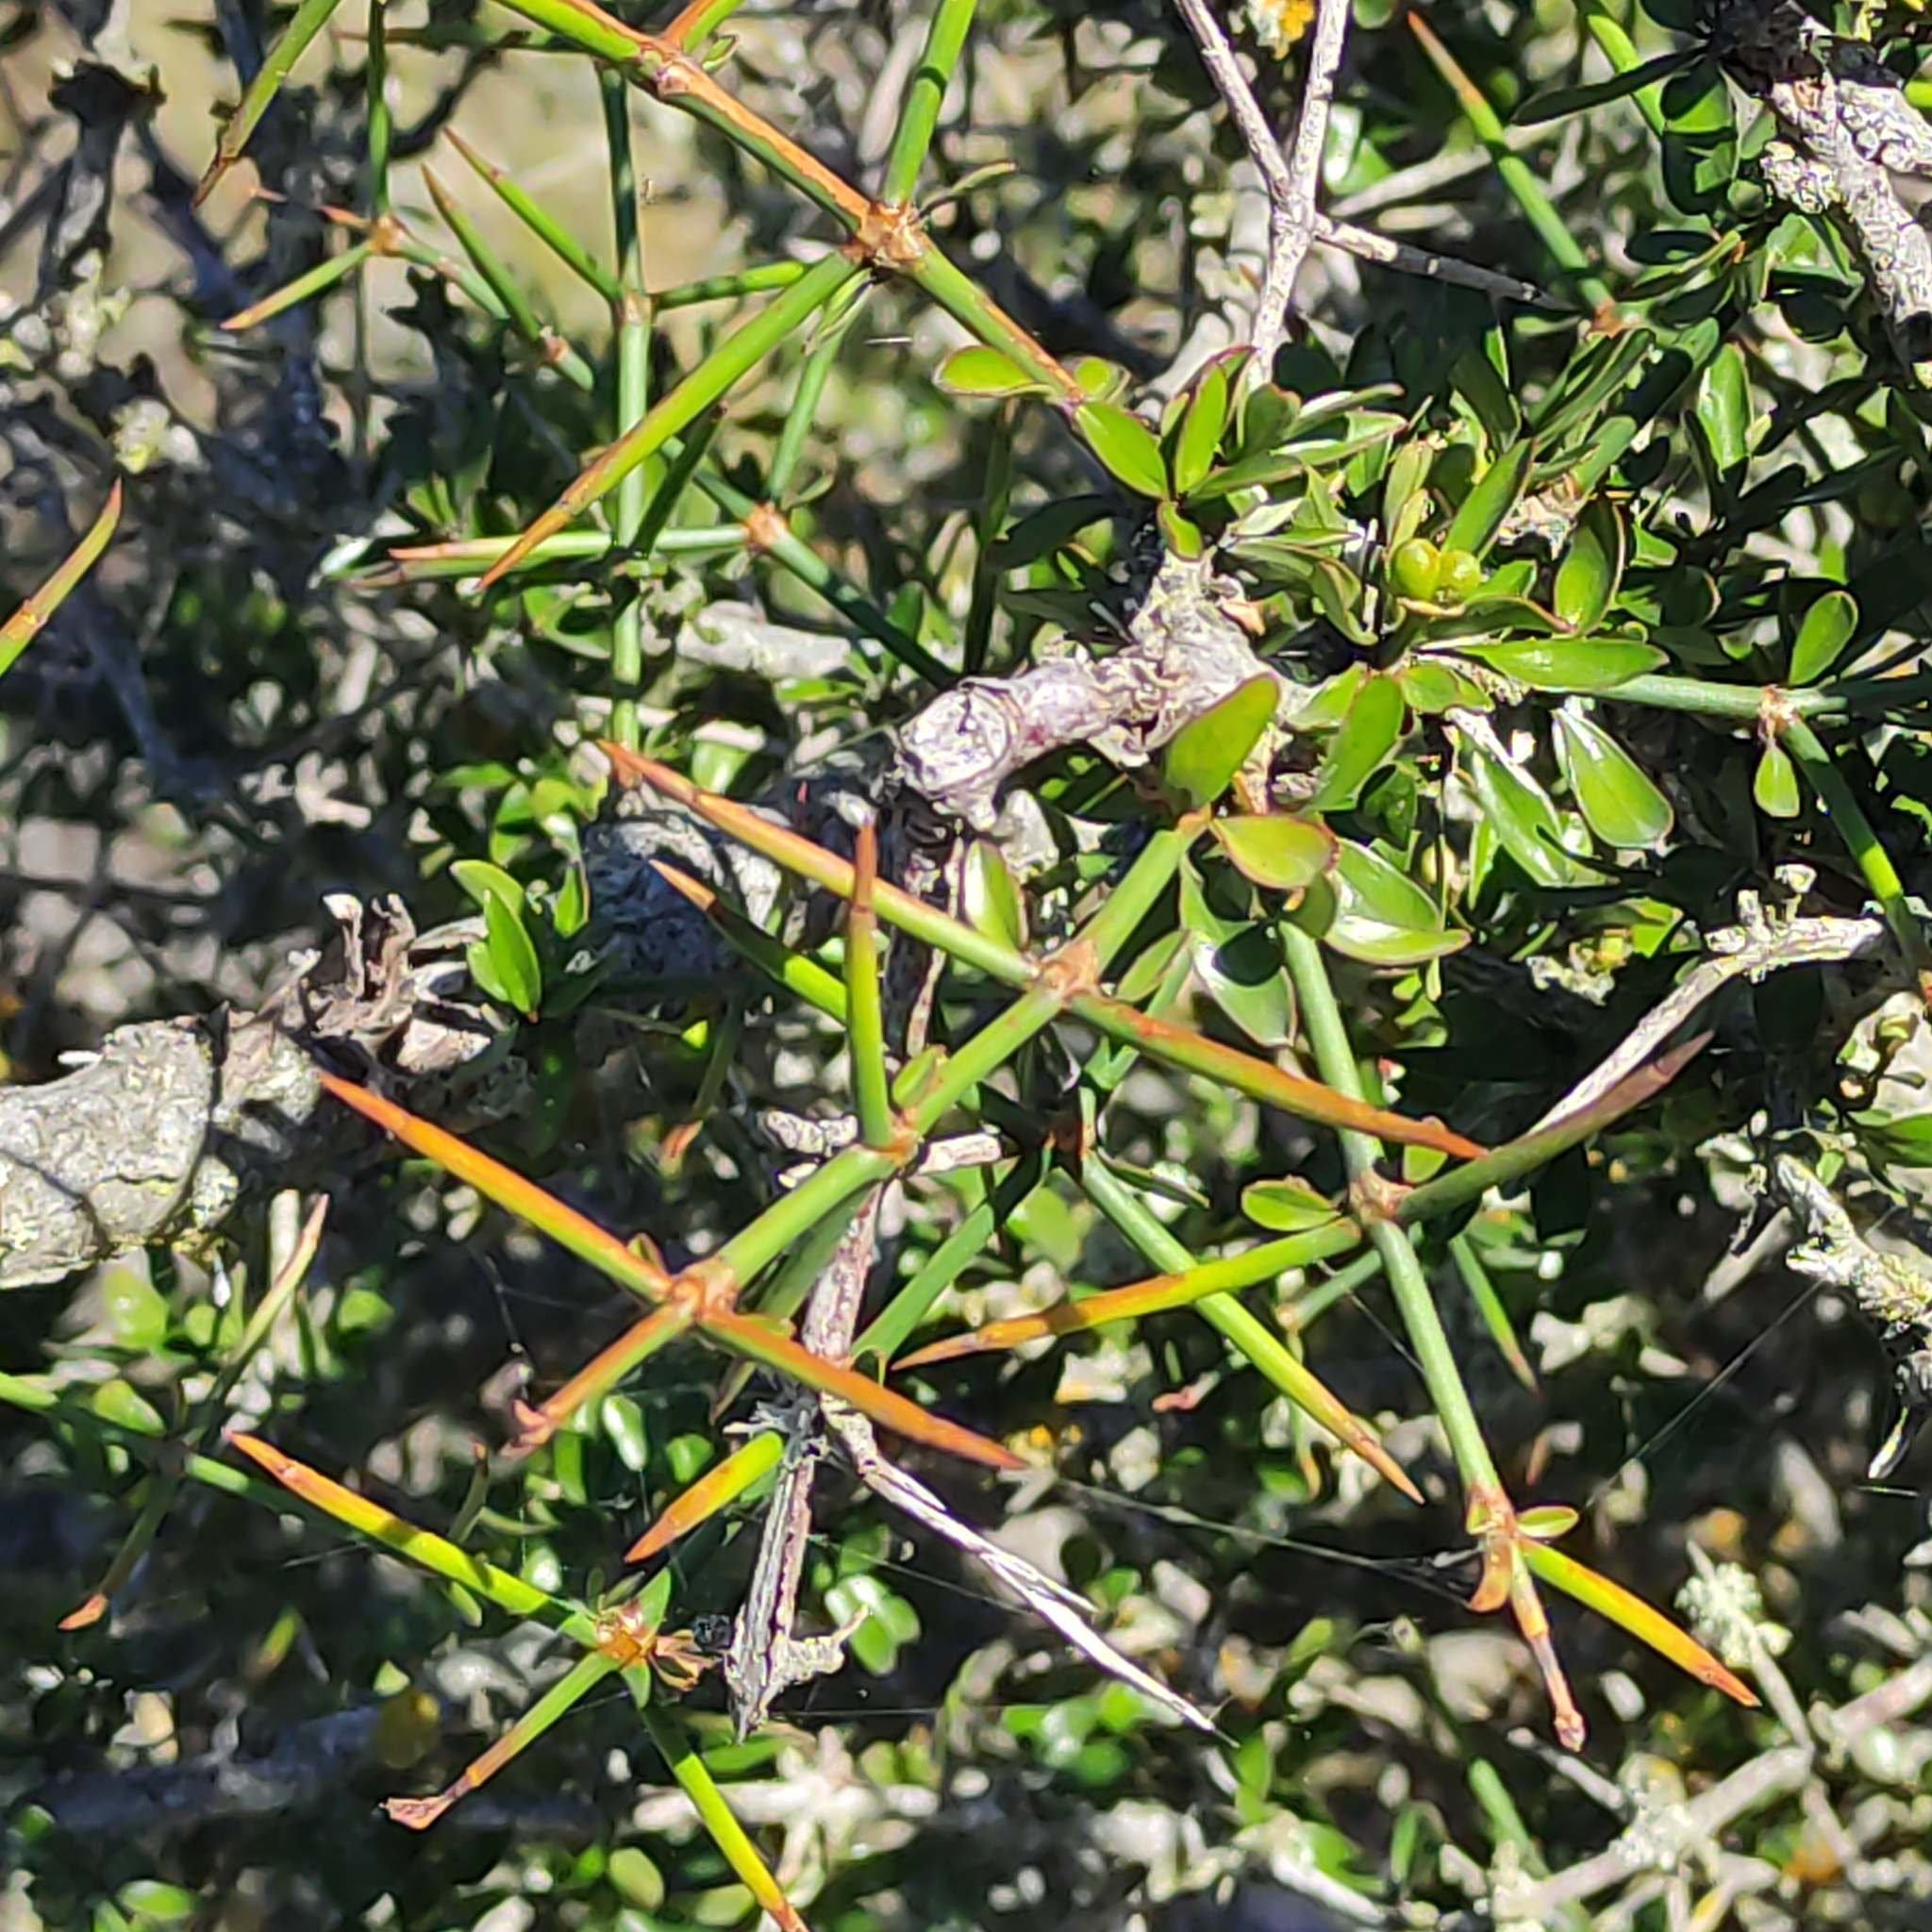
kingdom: Plantae
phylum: Tracheophyta
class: Magnoliopsida
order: Rosales
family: Rhamnaceae
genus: Discaria
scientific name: Discaria toumatou
